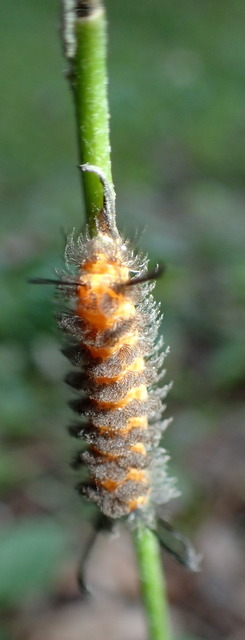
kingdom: Animalia
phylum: Arthropoda
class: Insecta
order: Lepidoptera
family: Erebidae
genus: Cycnia
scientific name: Cycnia collaris
